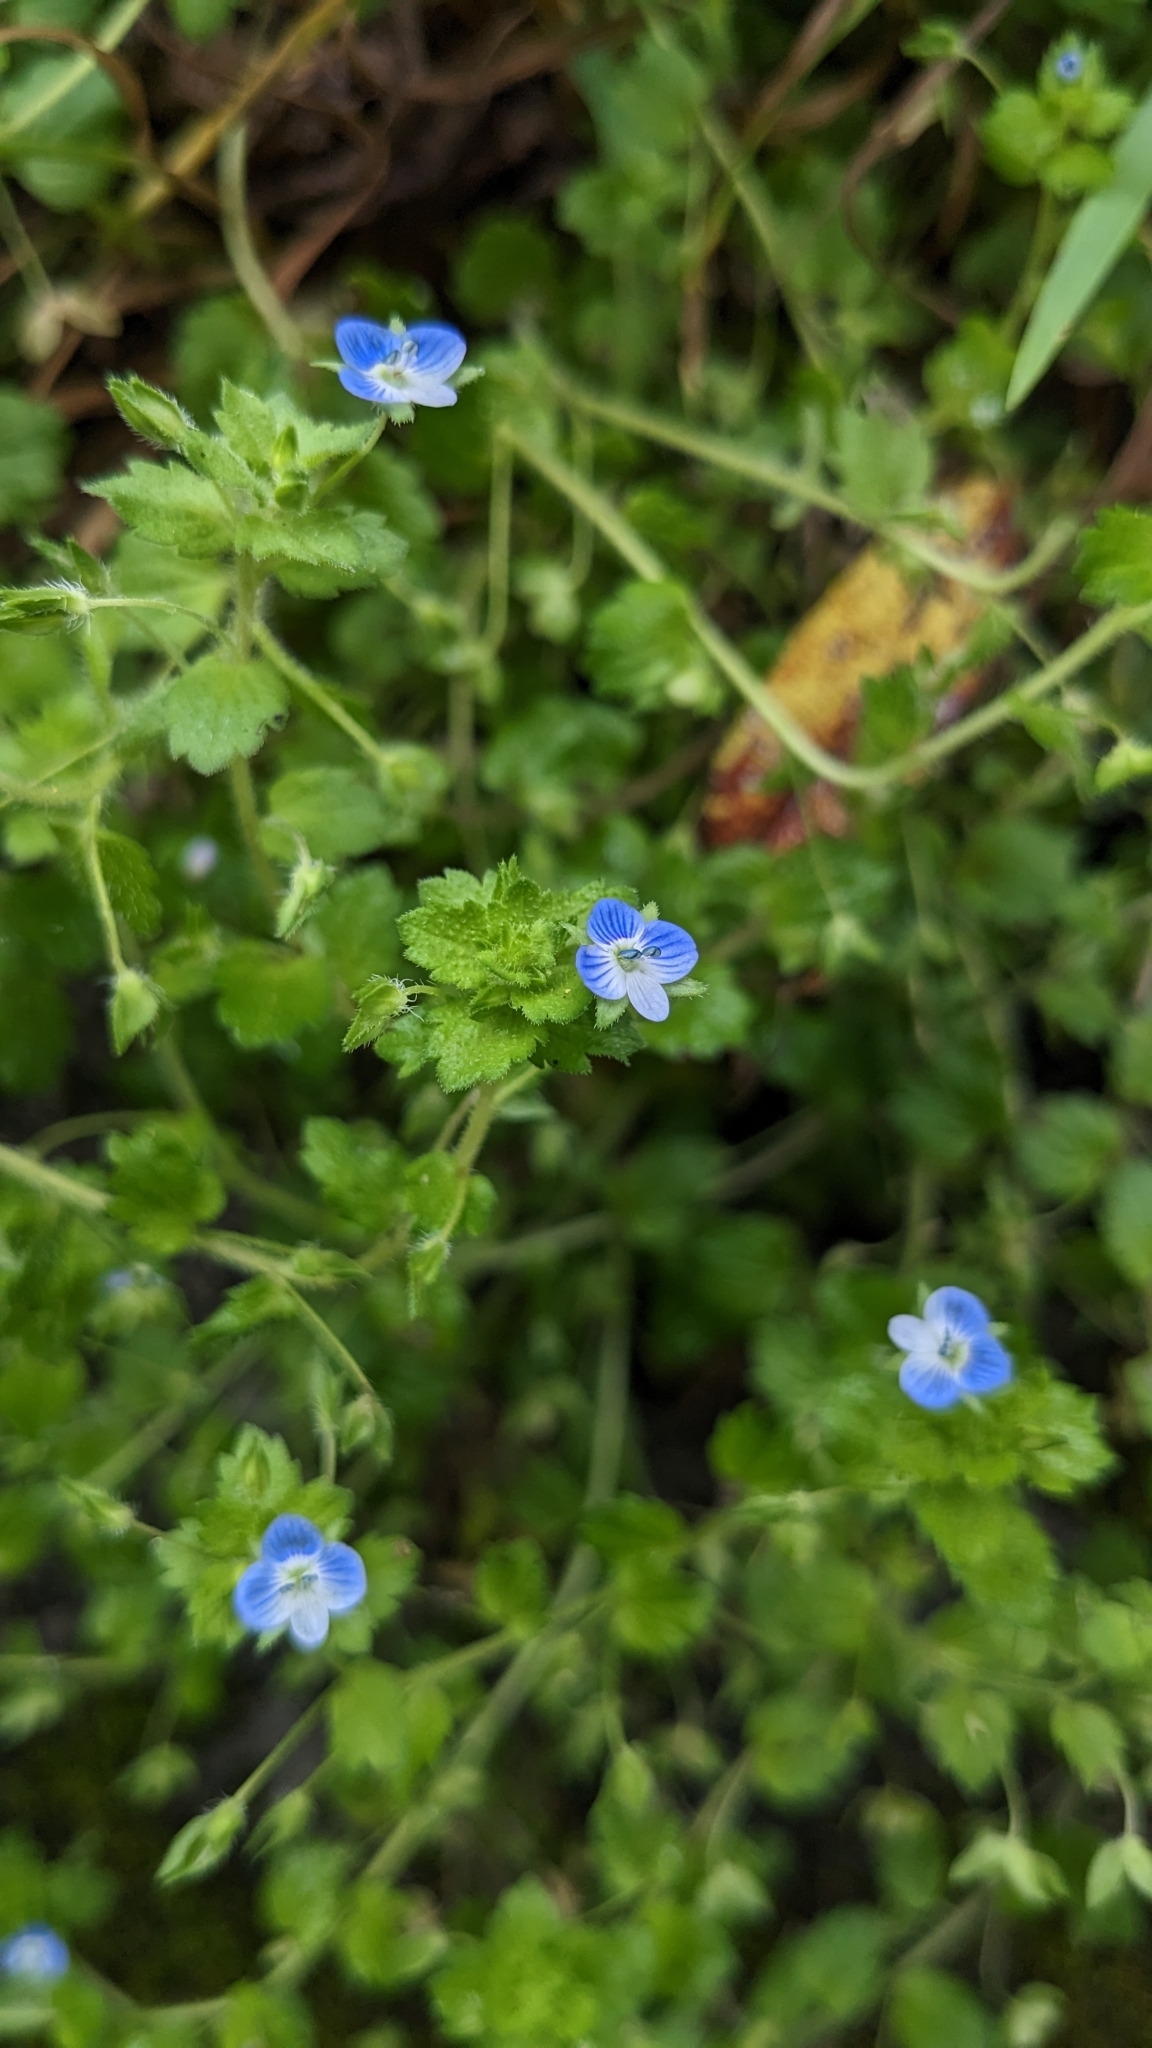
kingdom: Plantae
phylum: Tracheophyta
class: Magnoliopsida
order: Lamiales
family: Plantaginaceae
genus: Veronica
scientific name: Veronica persica
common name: Common field-speedwell
